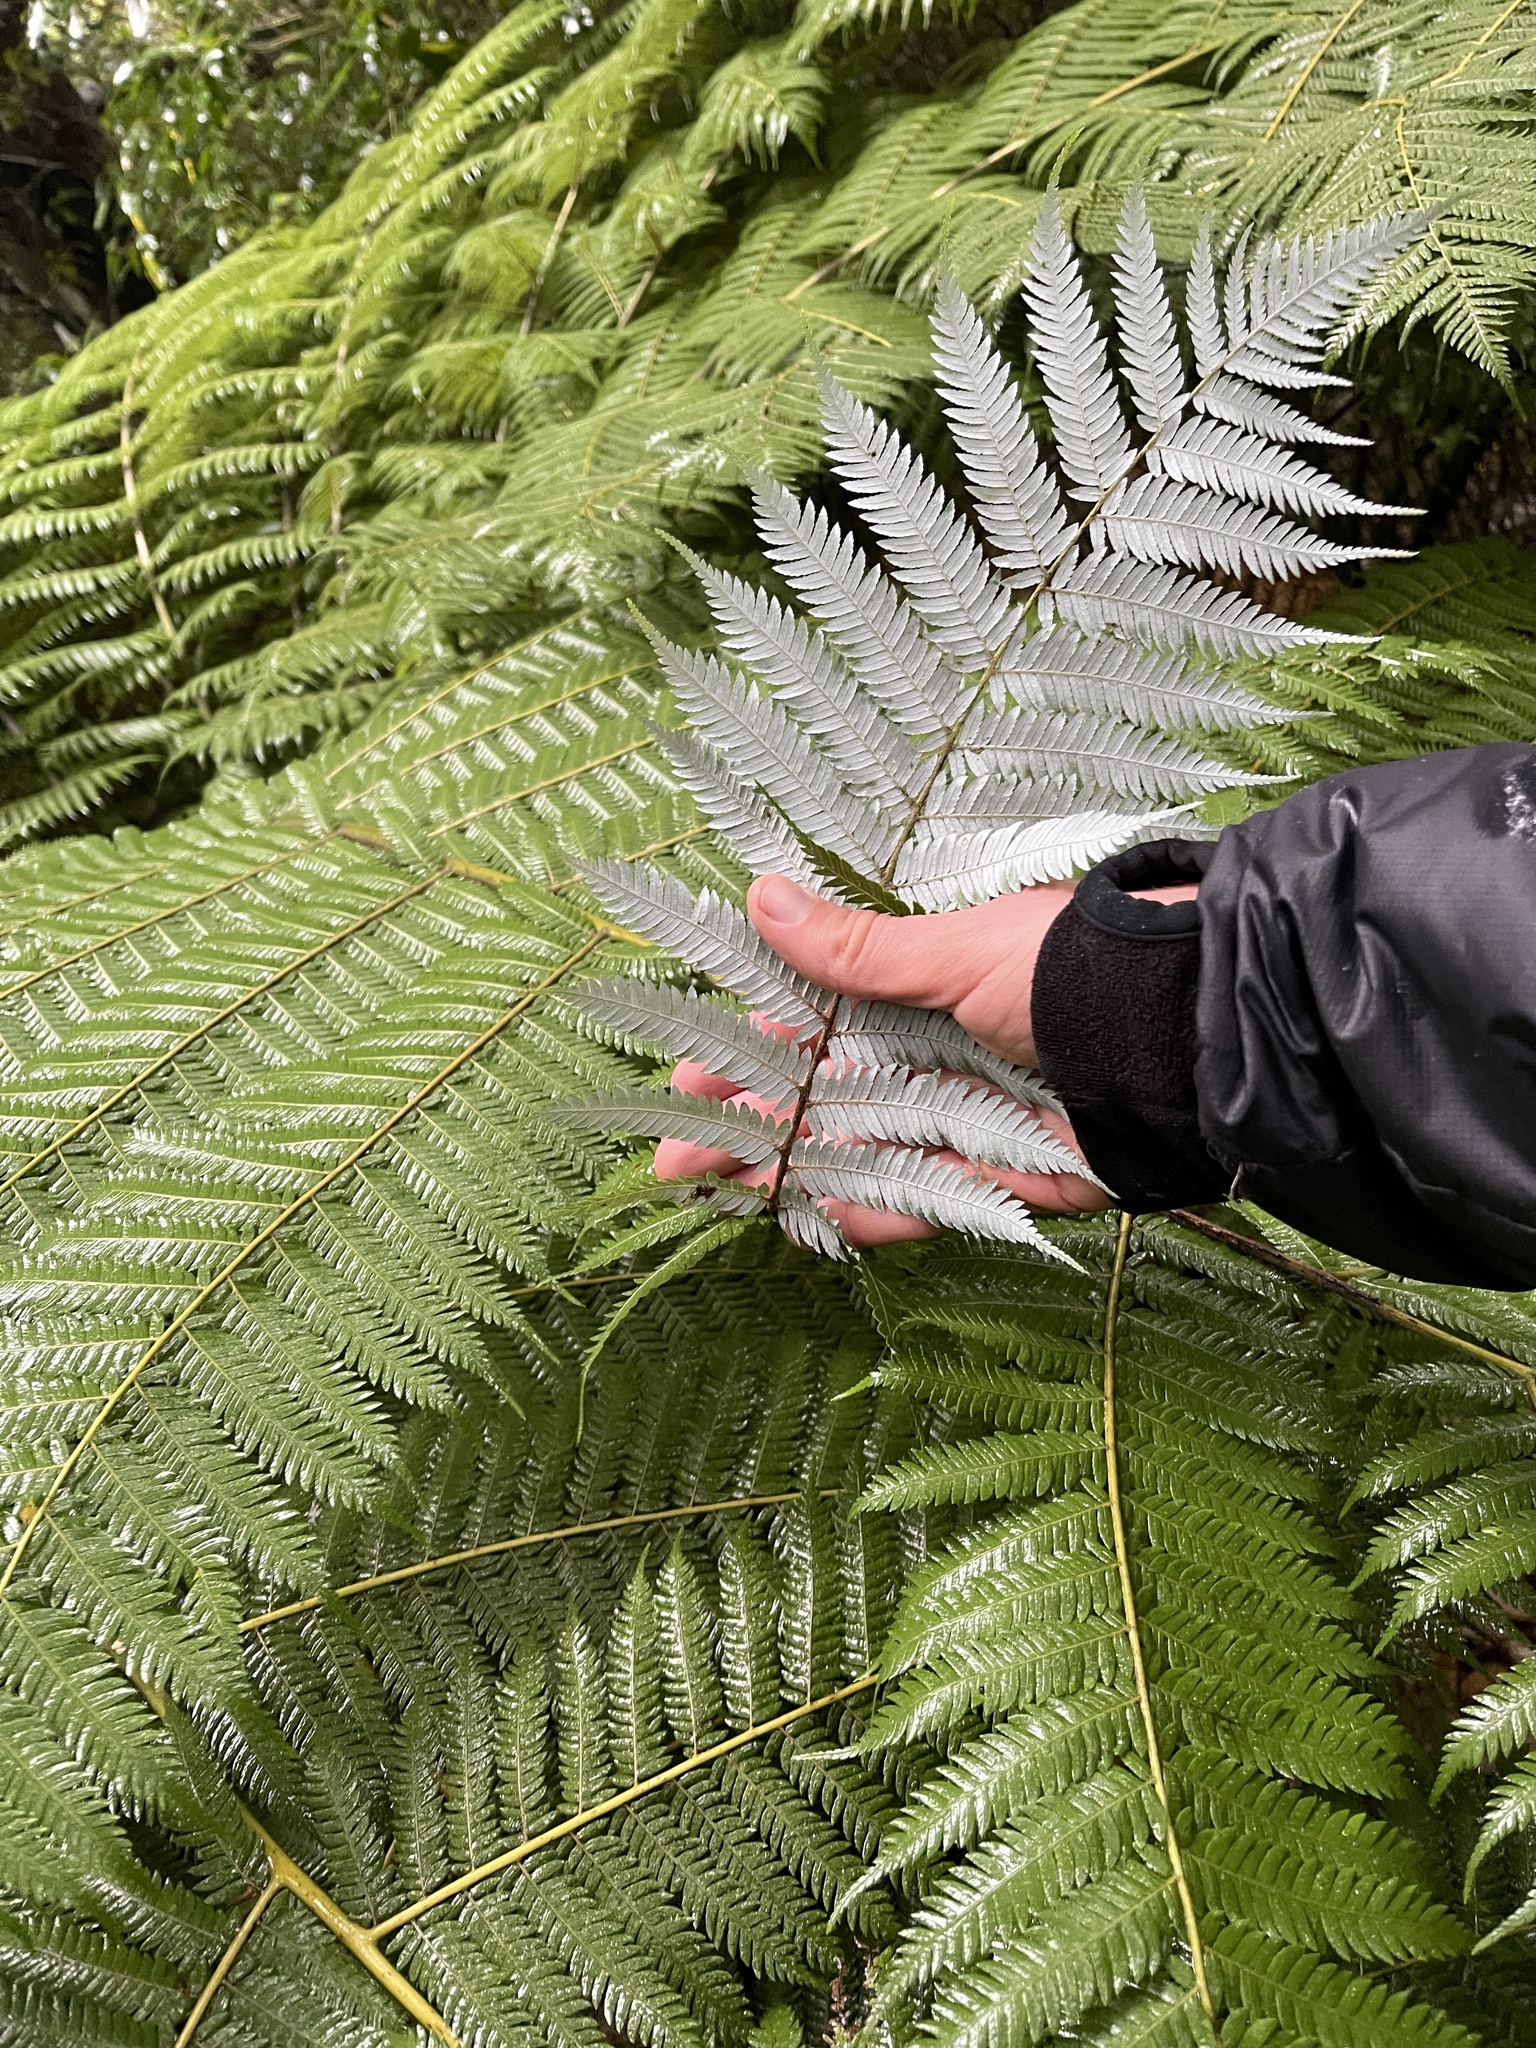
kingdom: Plantae
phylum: Tracheophyta
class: Polypodiopsida
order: Cyatheales
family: Cyatheaceae
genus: Alsophila
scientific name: Alsophila dealbata
